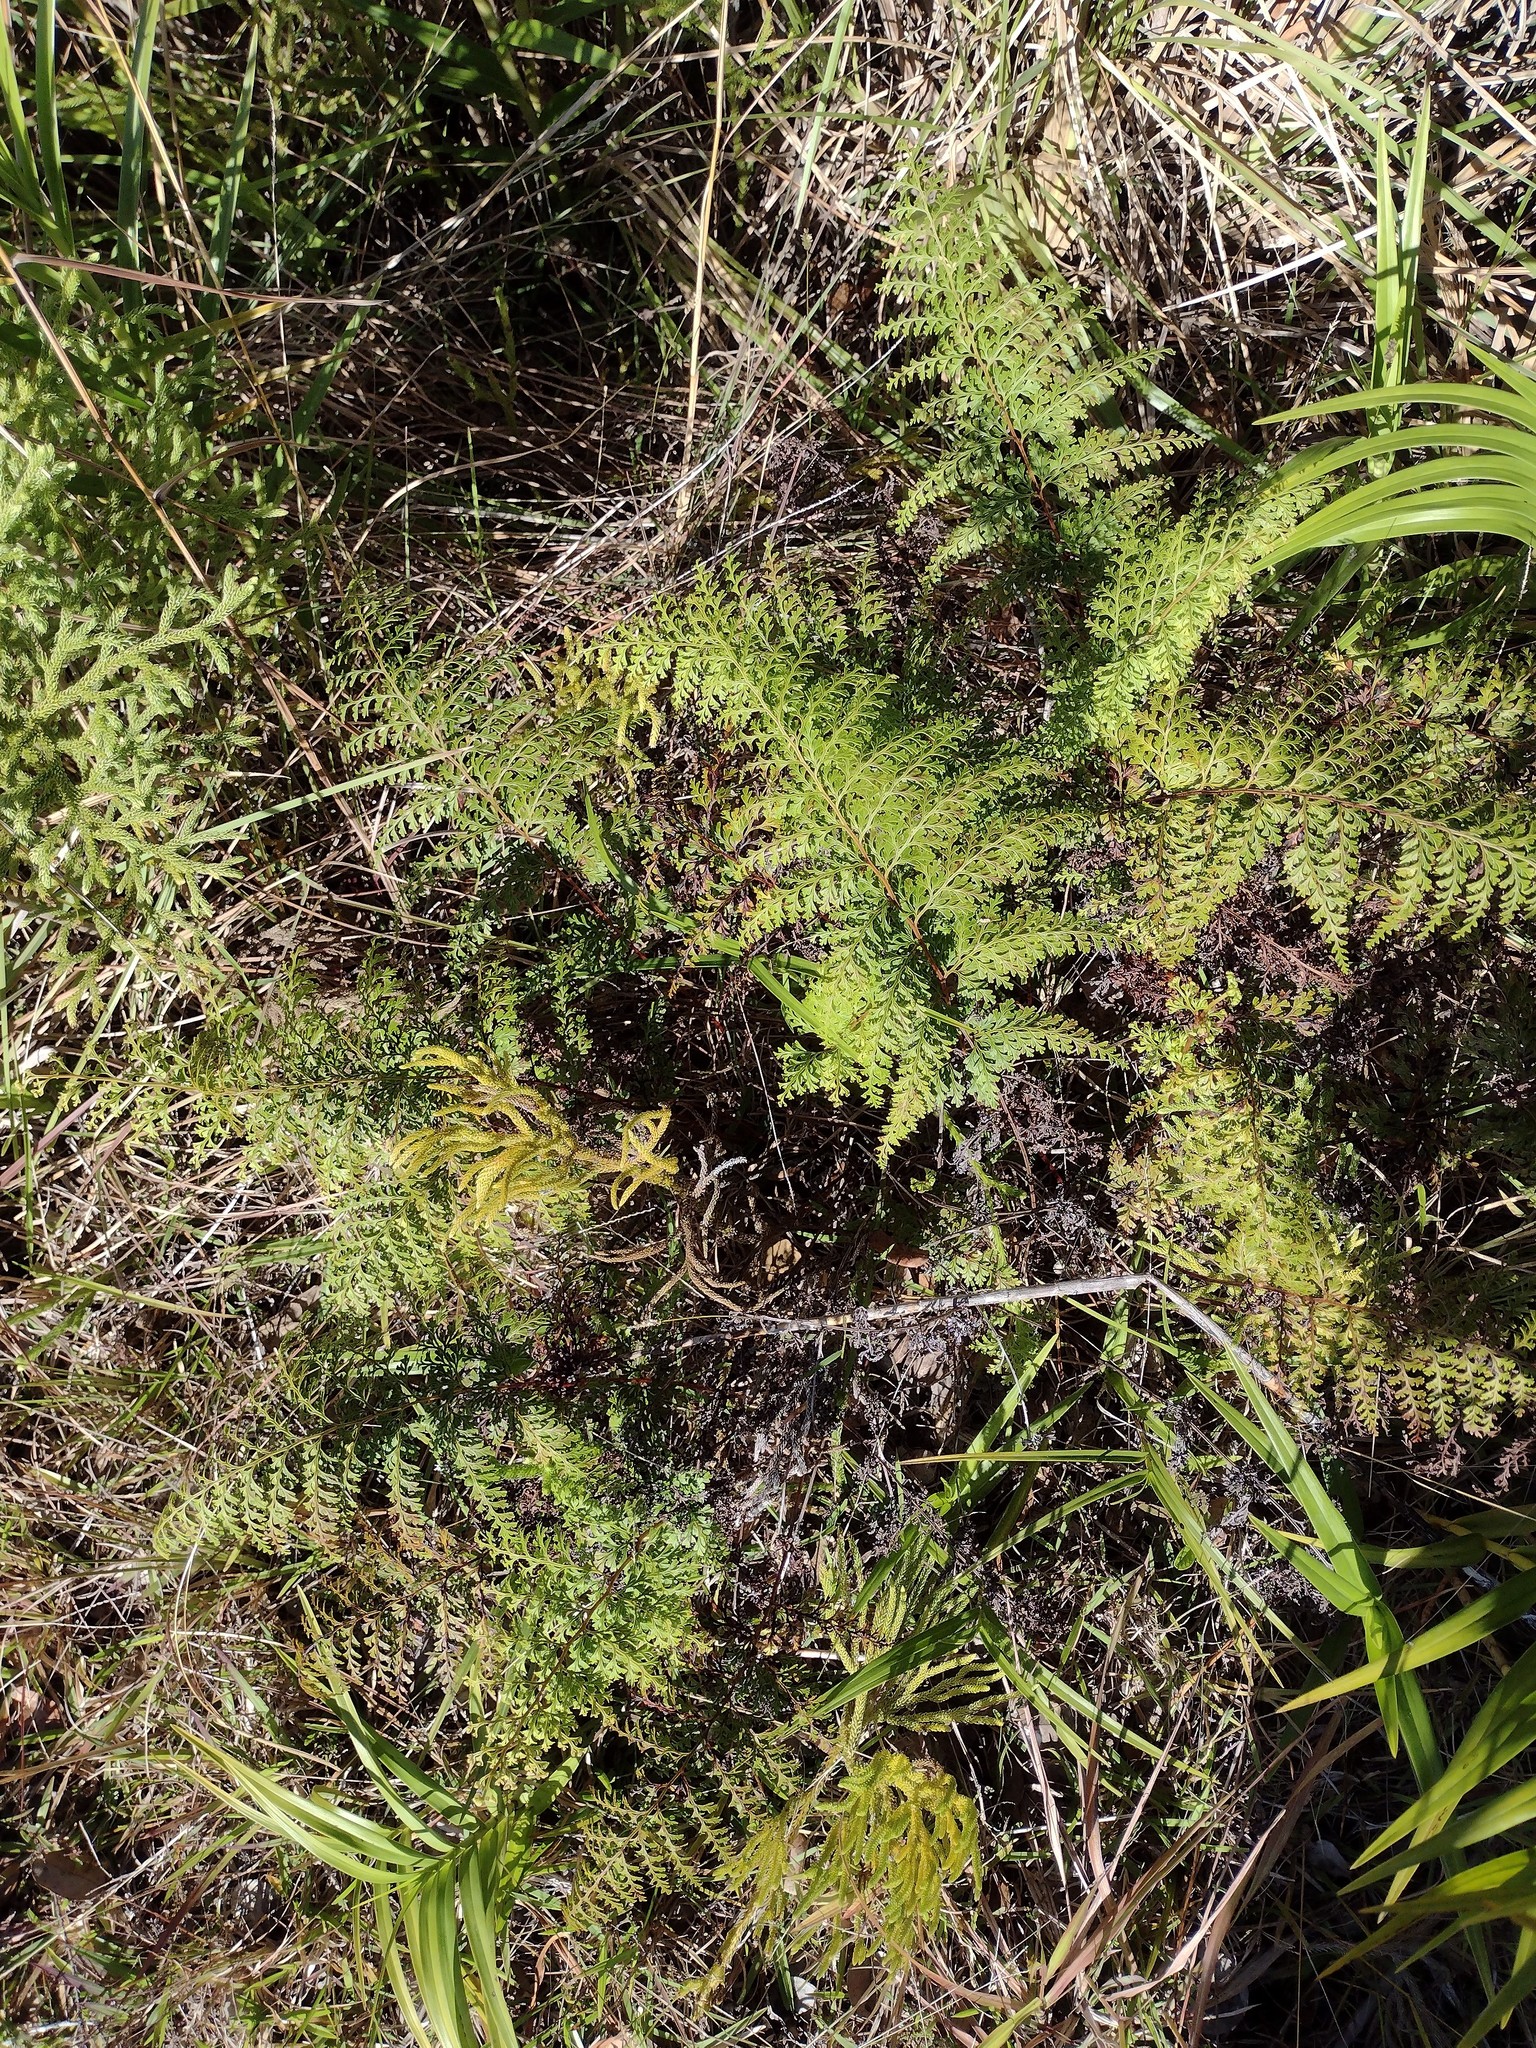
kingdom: Plantae
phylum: Tracheophyta
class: Polypodiopsida
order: Polypodiales
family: Lindsaeaceae
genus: Odontosoria
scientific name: Odontosoria chinensis
